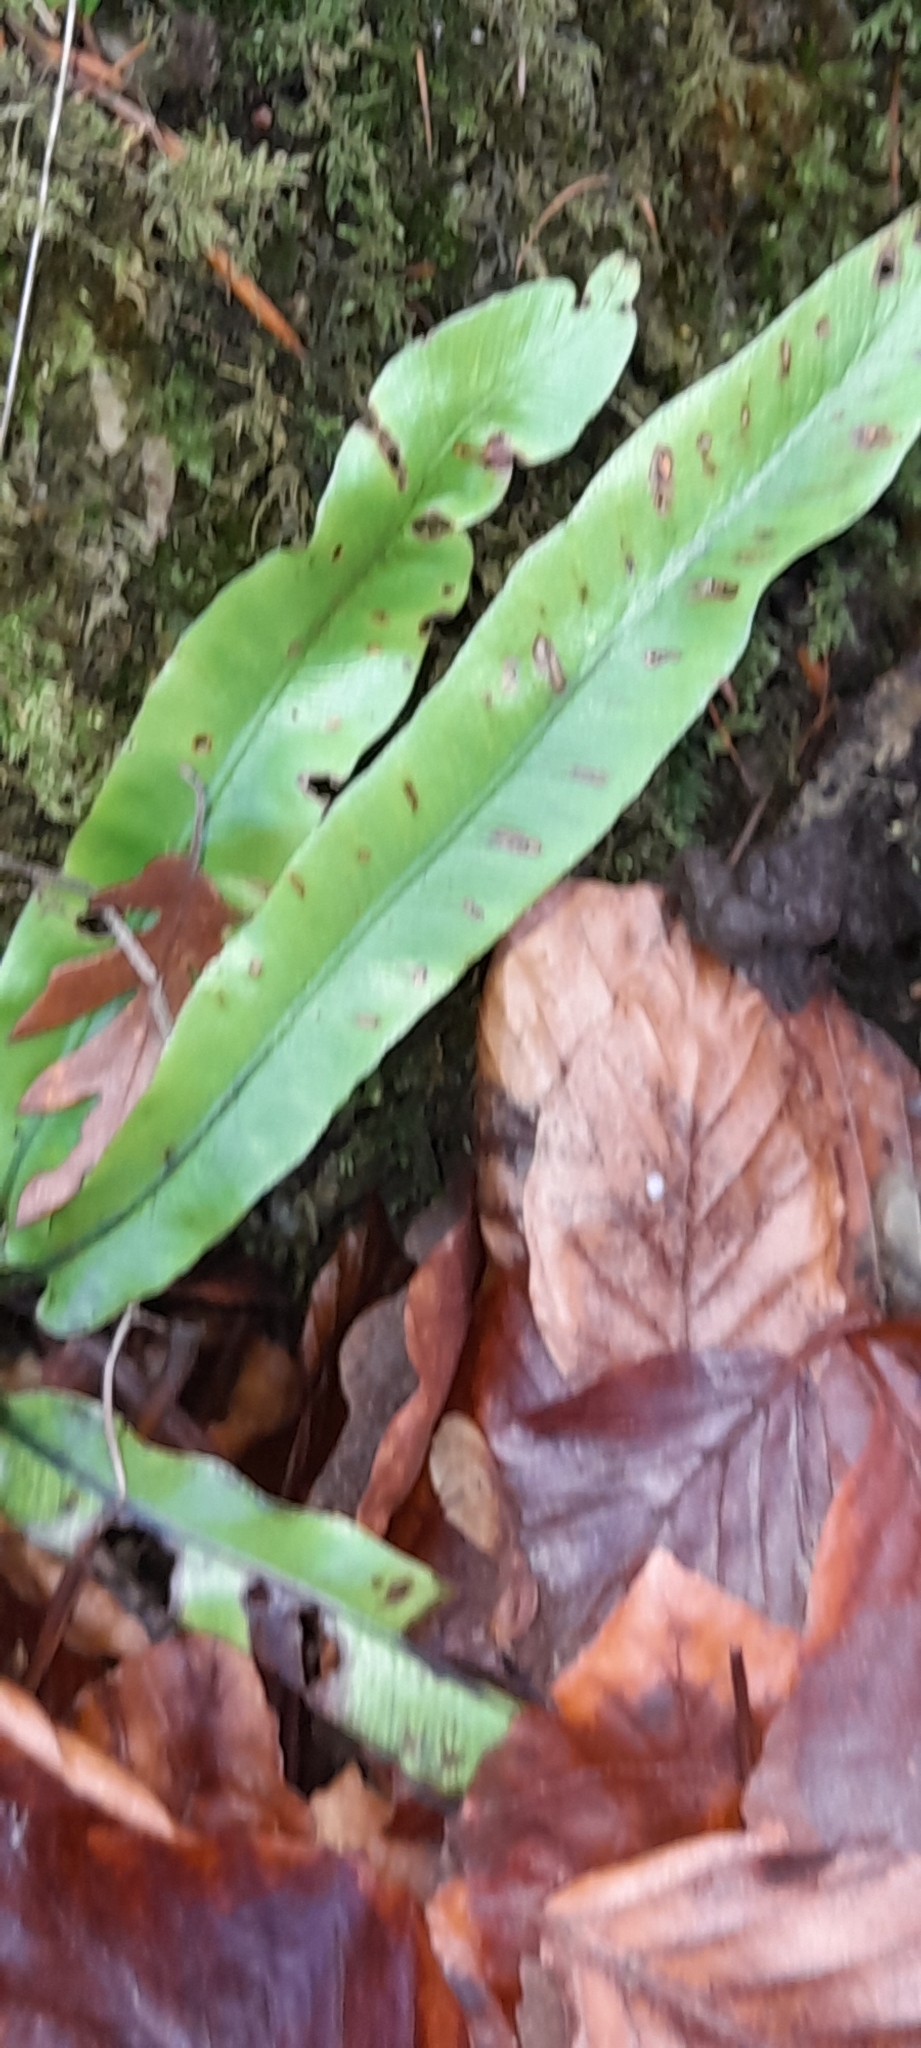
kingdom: Plantae
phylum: Tracheophyta
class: Polypodiopsida
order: Polypodiales
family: Aspleniaceae
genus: Asplenium
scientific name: Asplenium scolopendrium
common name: Hart's-tongue fern
